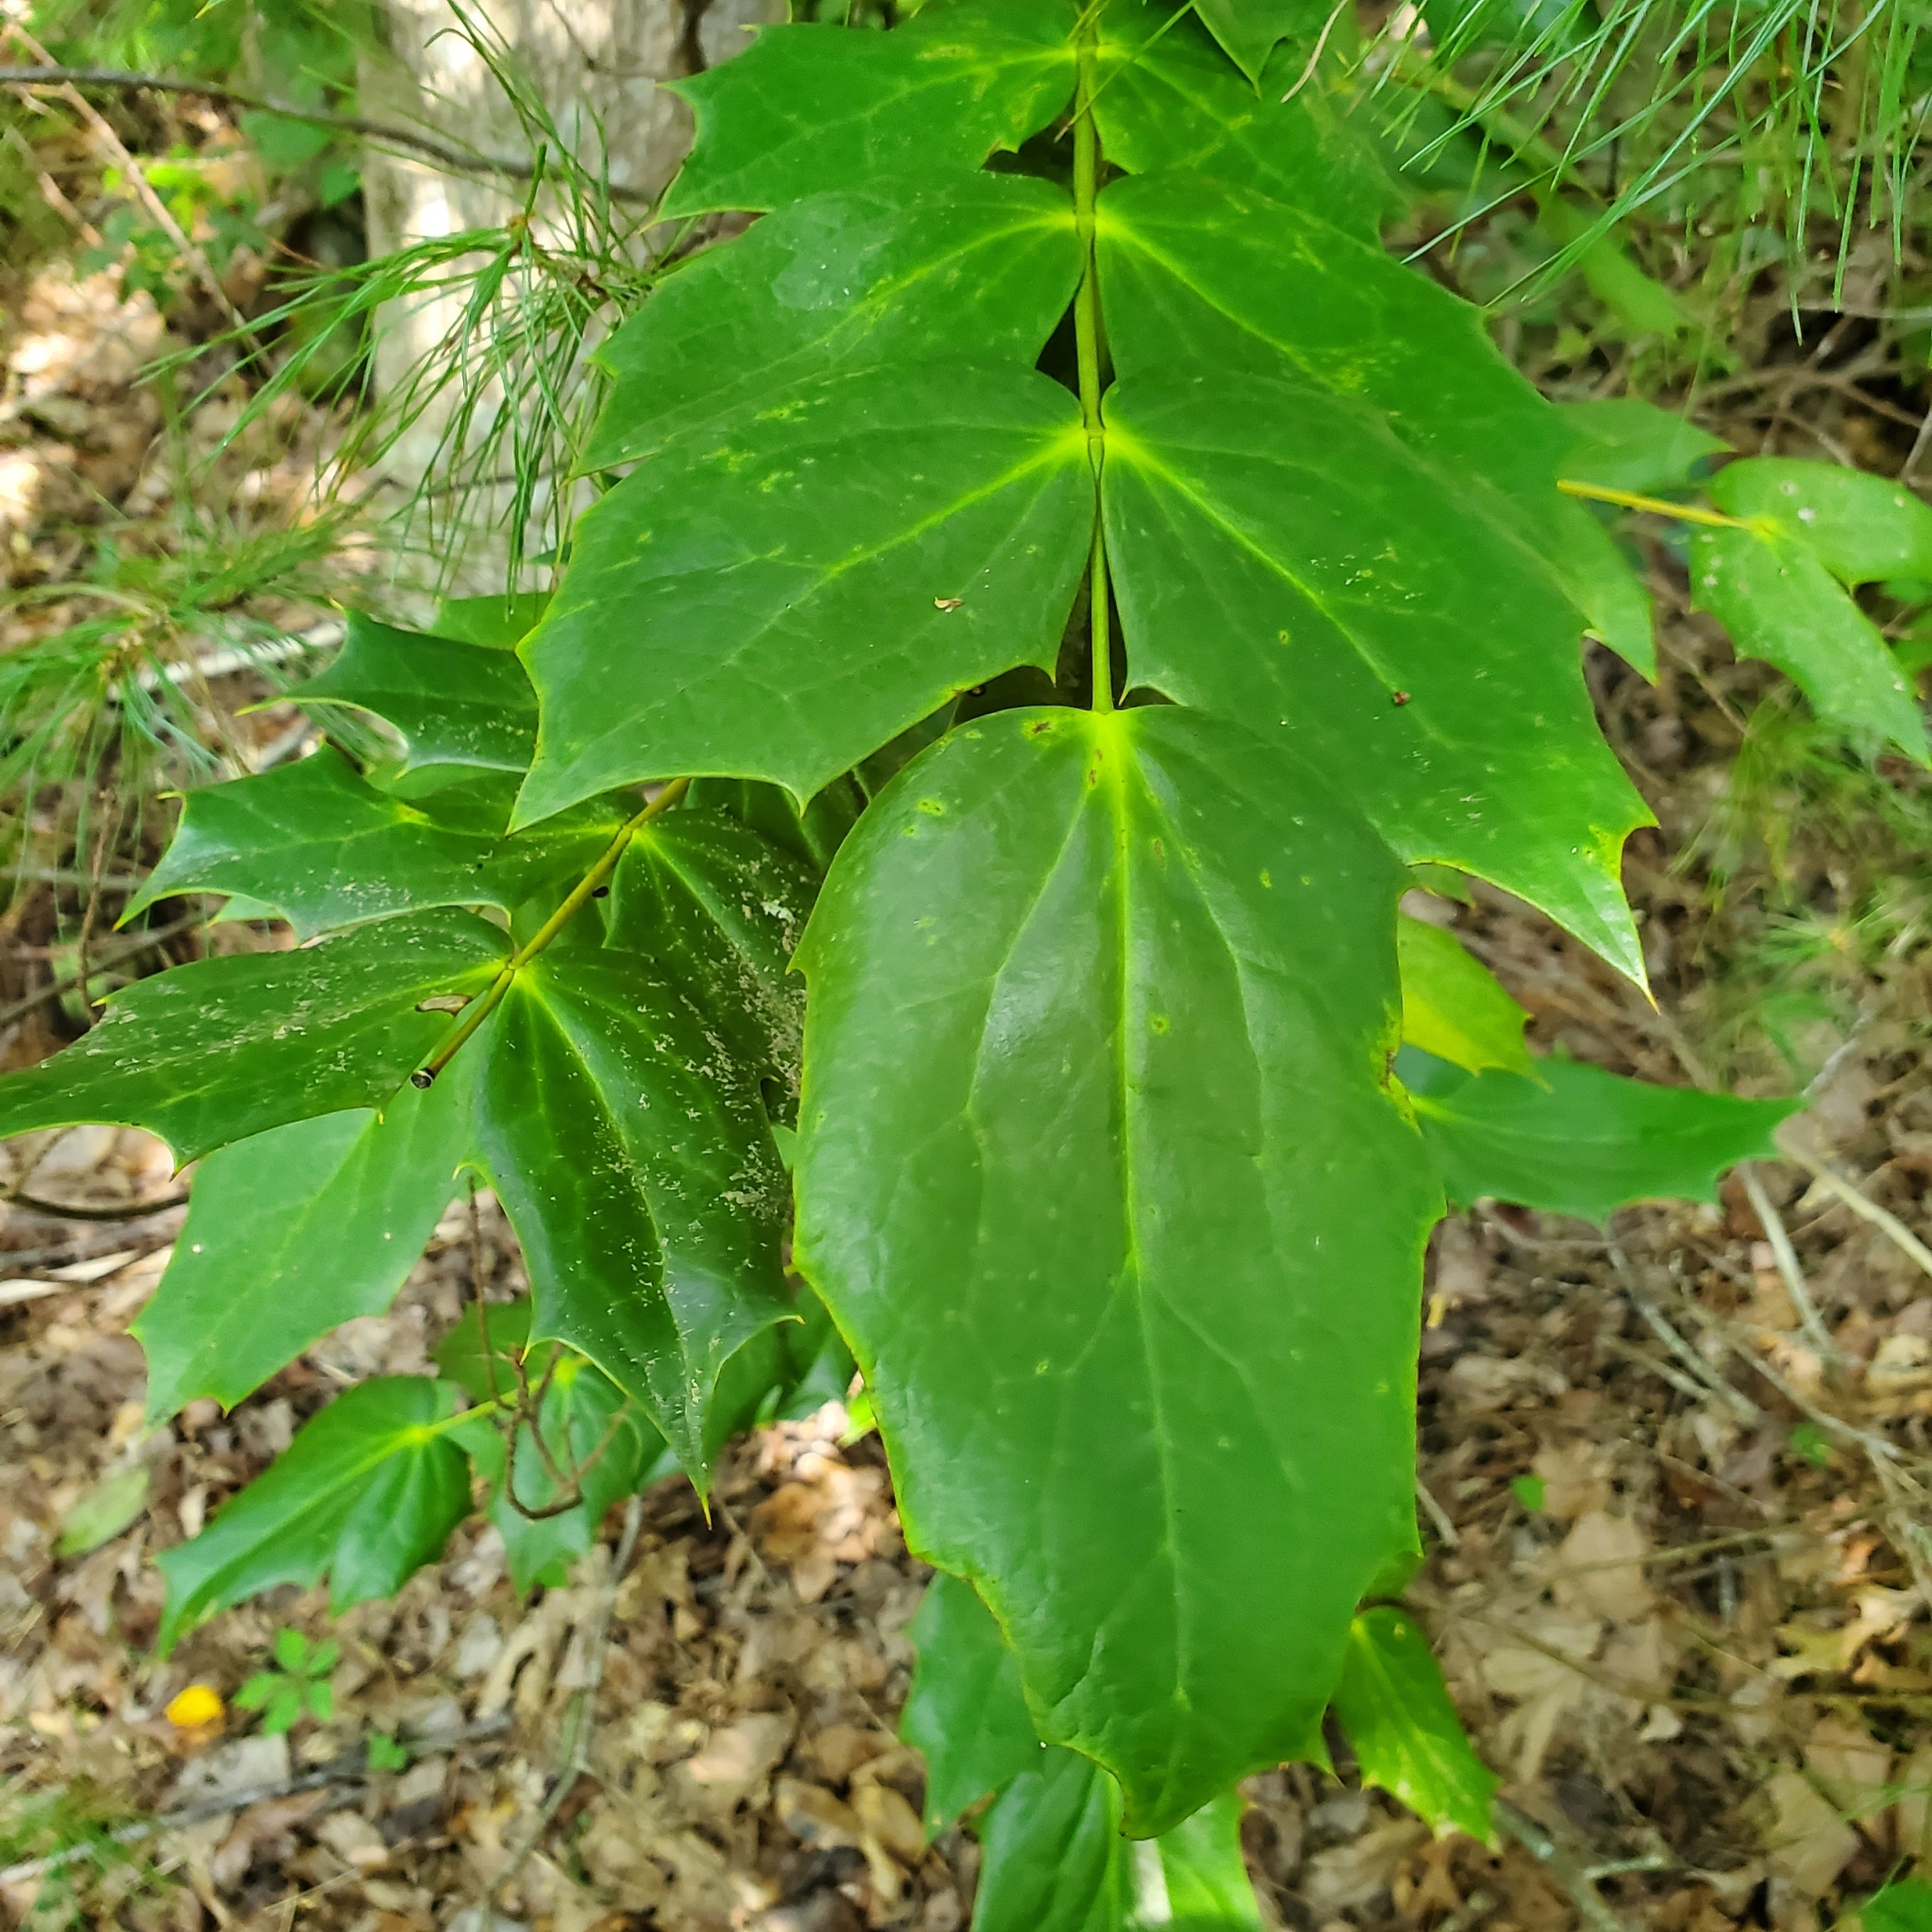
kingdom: Plantae
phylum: Tracheophyta
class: Magnoliopsida
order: Ranunculales
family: Berberidaceae
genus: Mahonia
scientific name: Mahonia bealei
